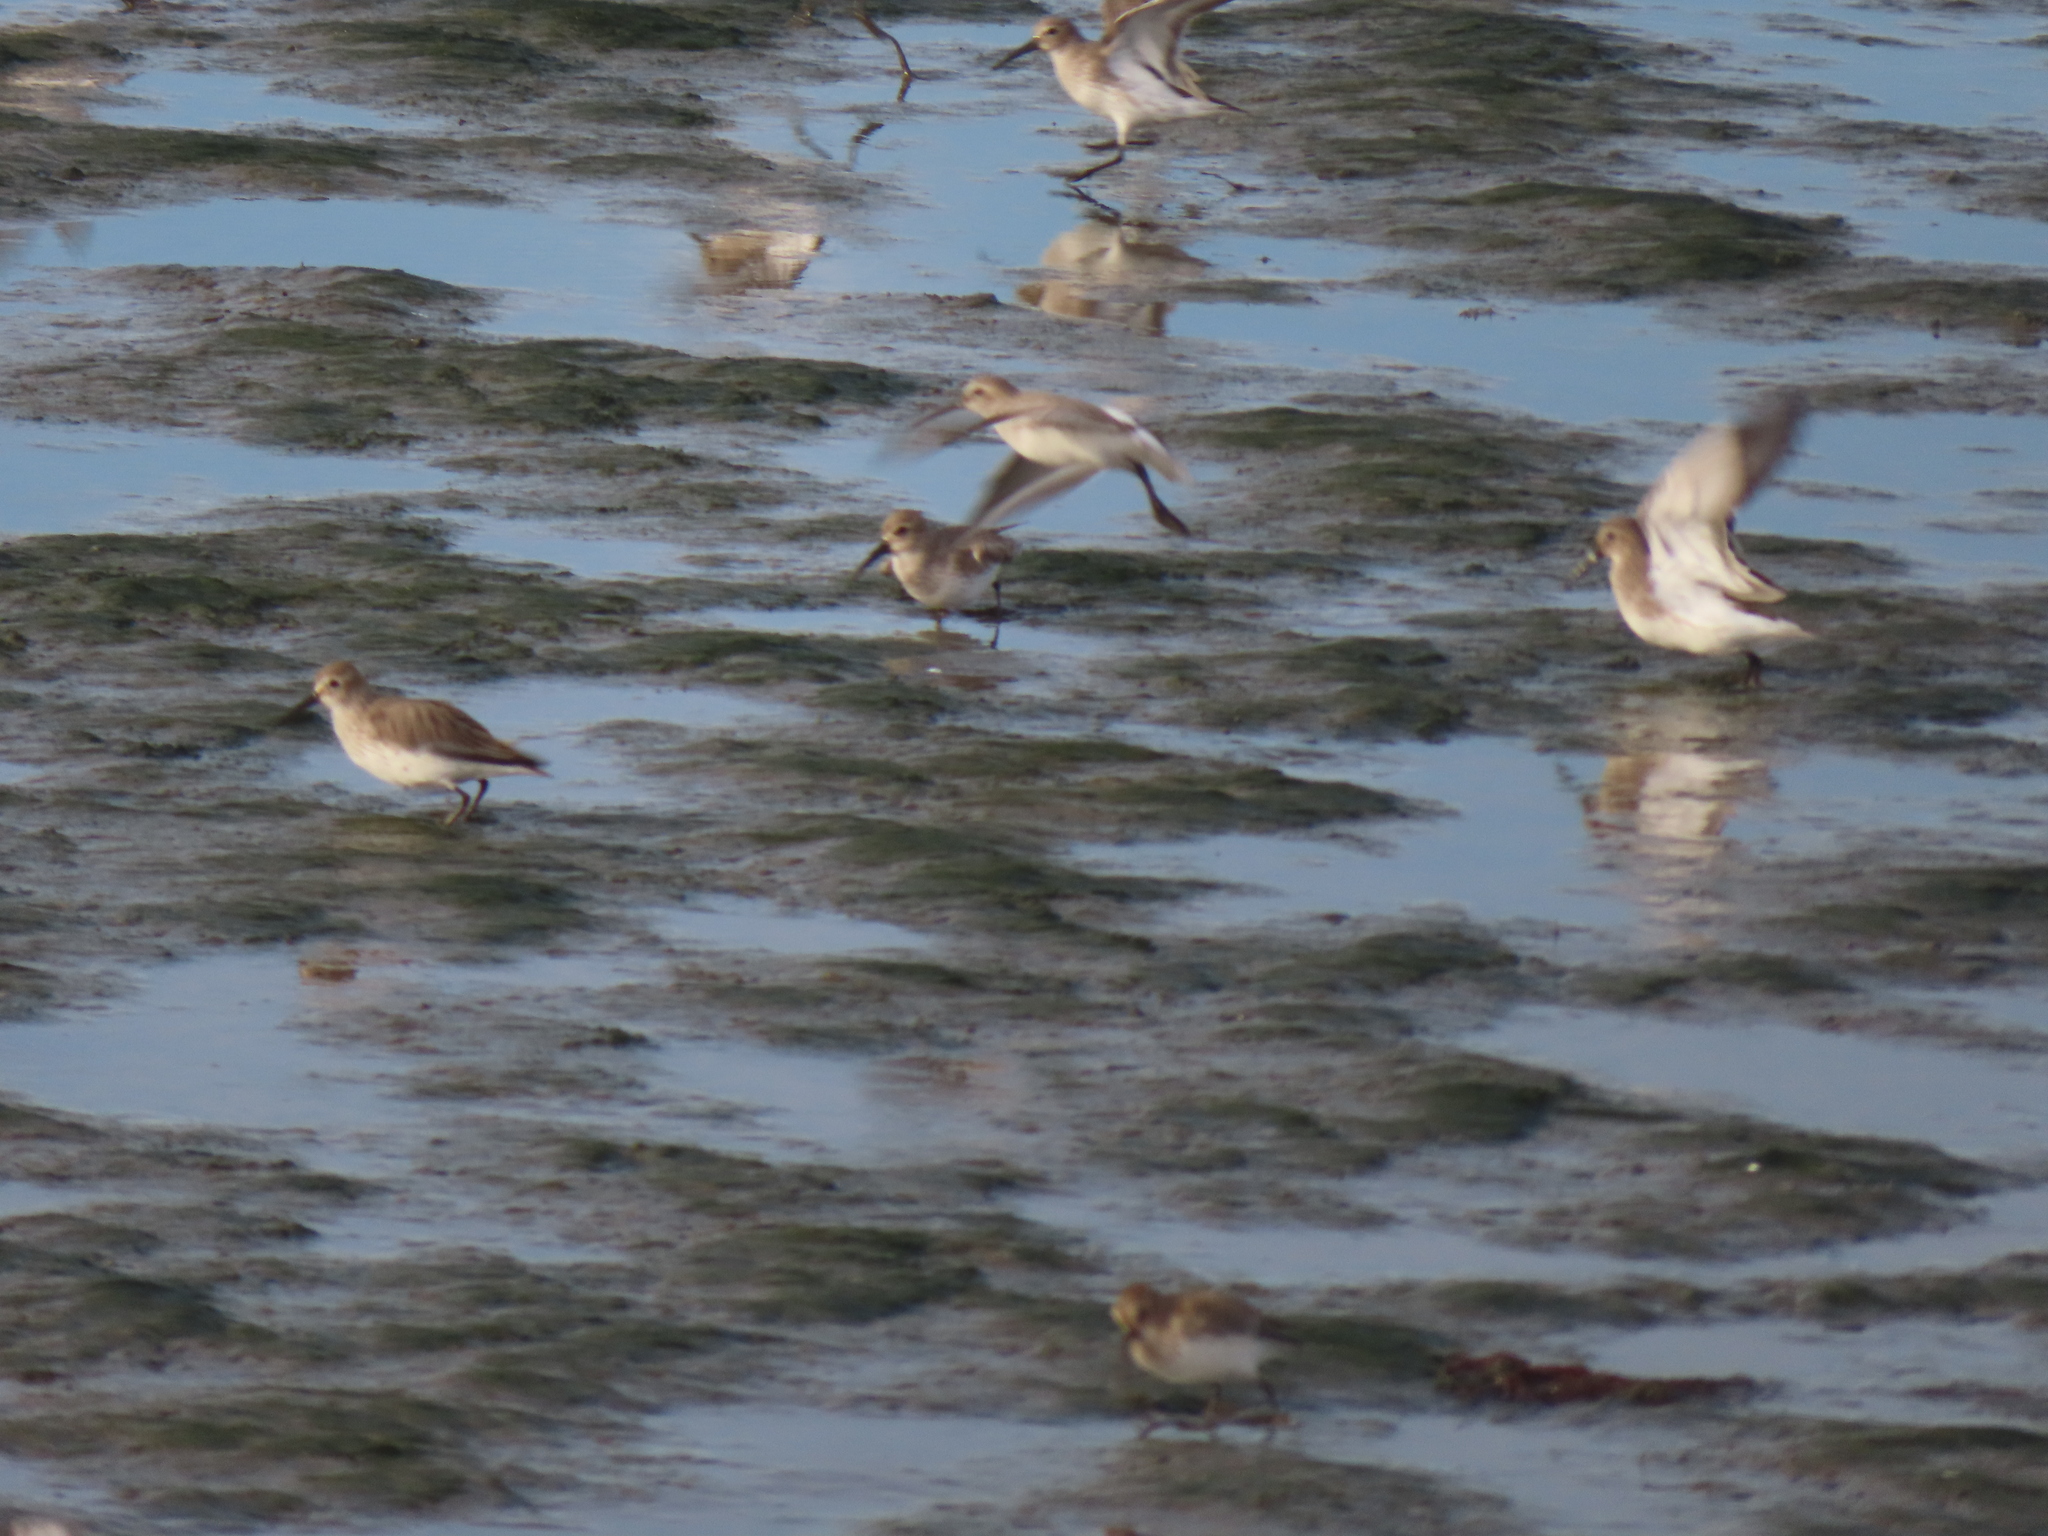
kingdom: Animalia
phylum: Chordata
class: Aves
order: Charadriiformes
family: Scolopacidae
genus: Calidris
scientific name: Calidris alpina
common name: Dunlin
